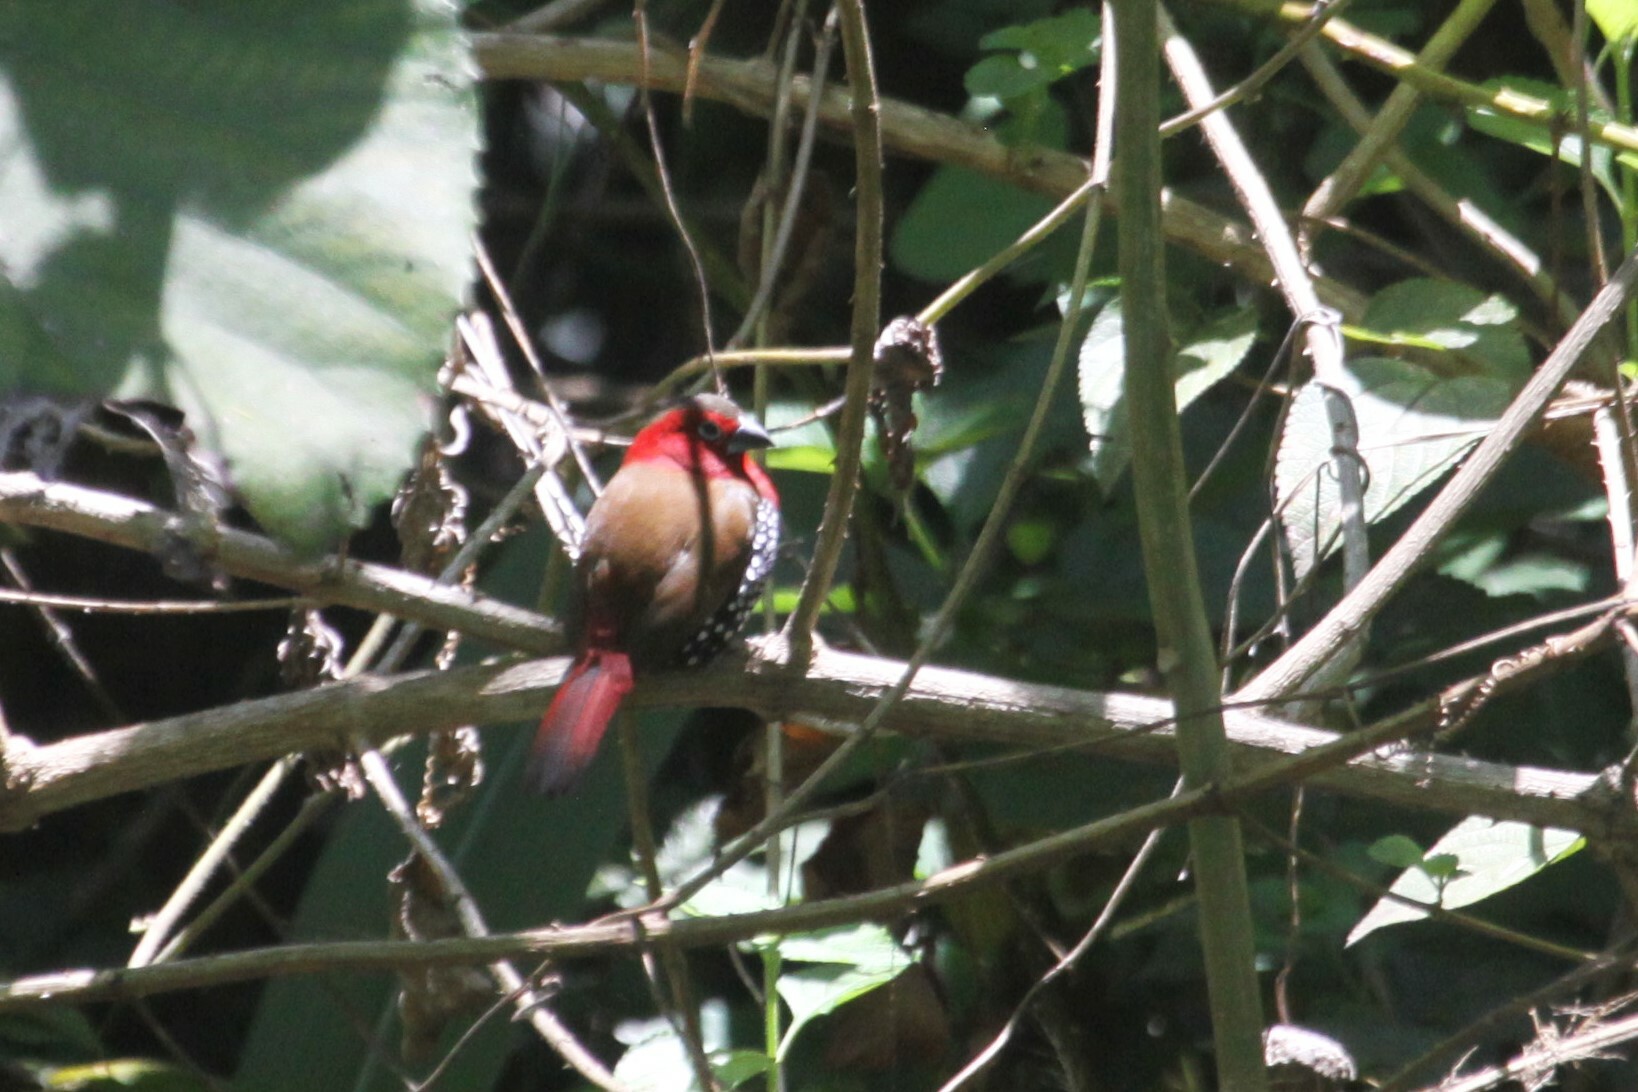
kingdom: Animalia
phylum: Chordata
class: Aves
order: Passeriformes
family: Estrildidae
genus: Hypargos
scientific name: Hypargos niveoguttatus
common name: Red-throated twinspot
